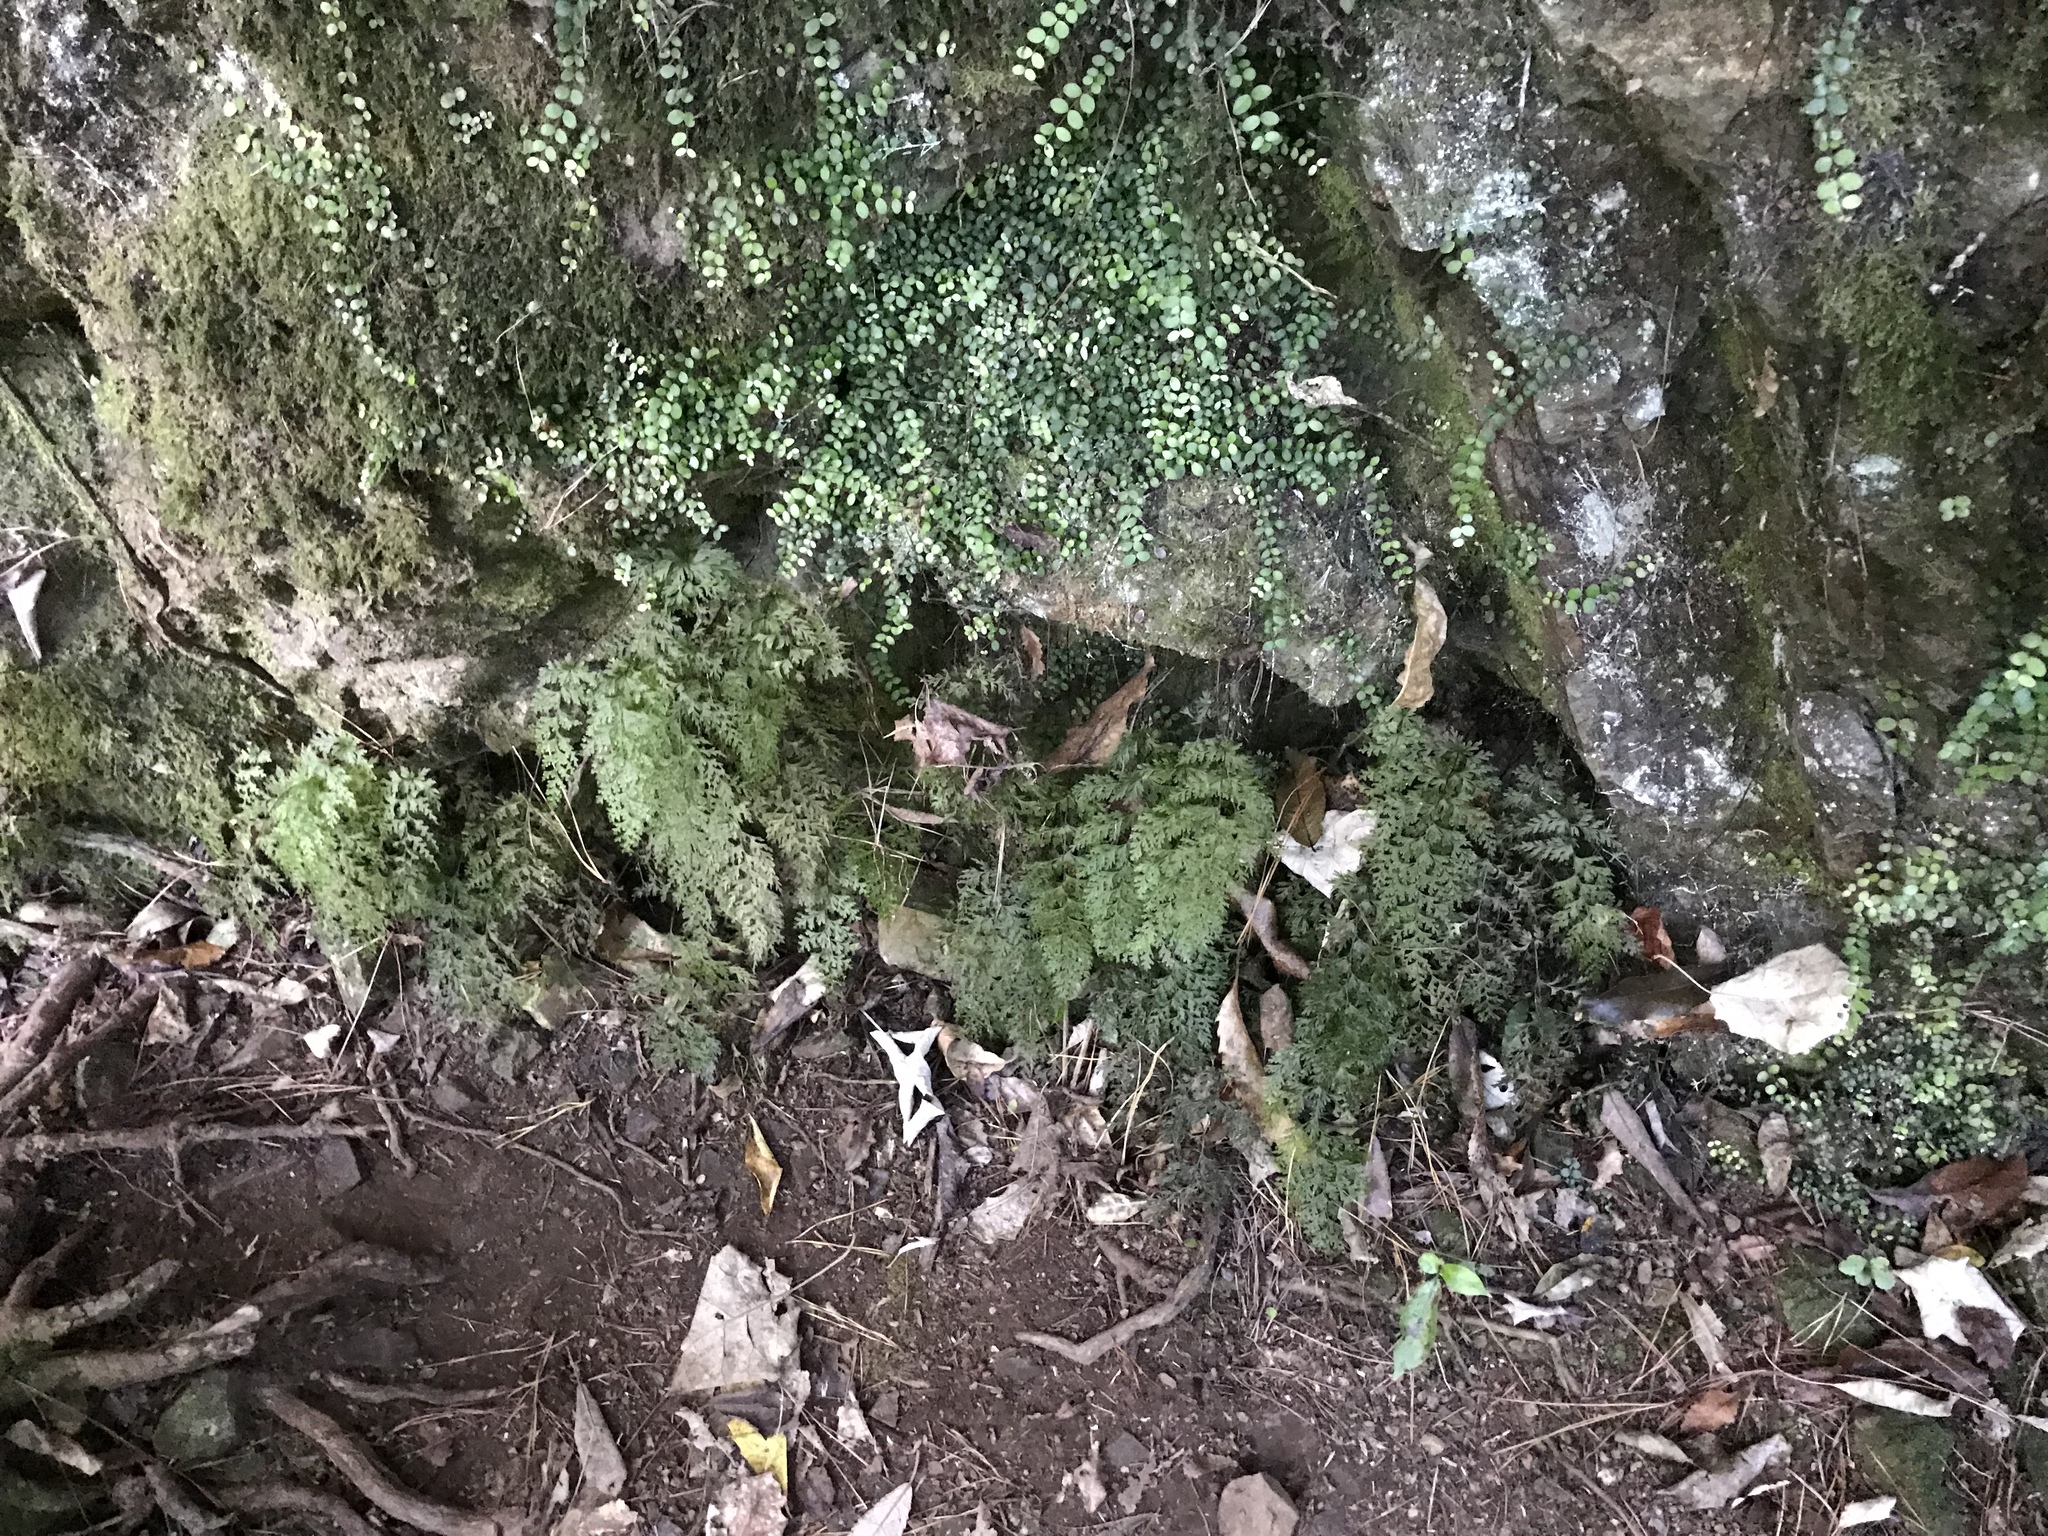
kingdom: Plantae
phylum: Tracheophyta
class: Polypodiopsida
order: Hymenophyllales
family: Hymenophyllaceae
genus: Hymenophyllum
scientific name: Hymenophyllum demissum
